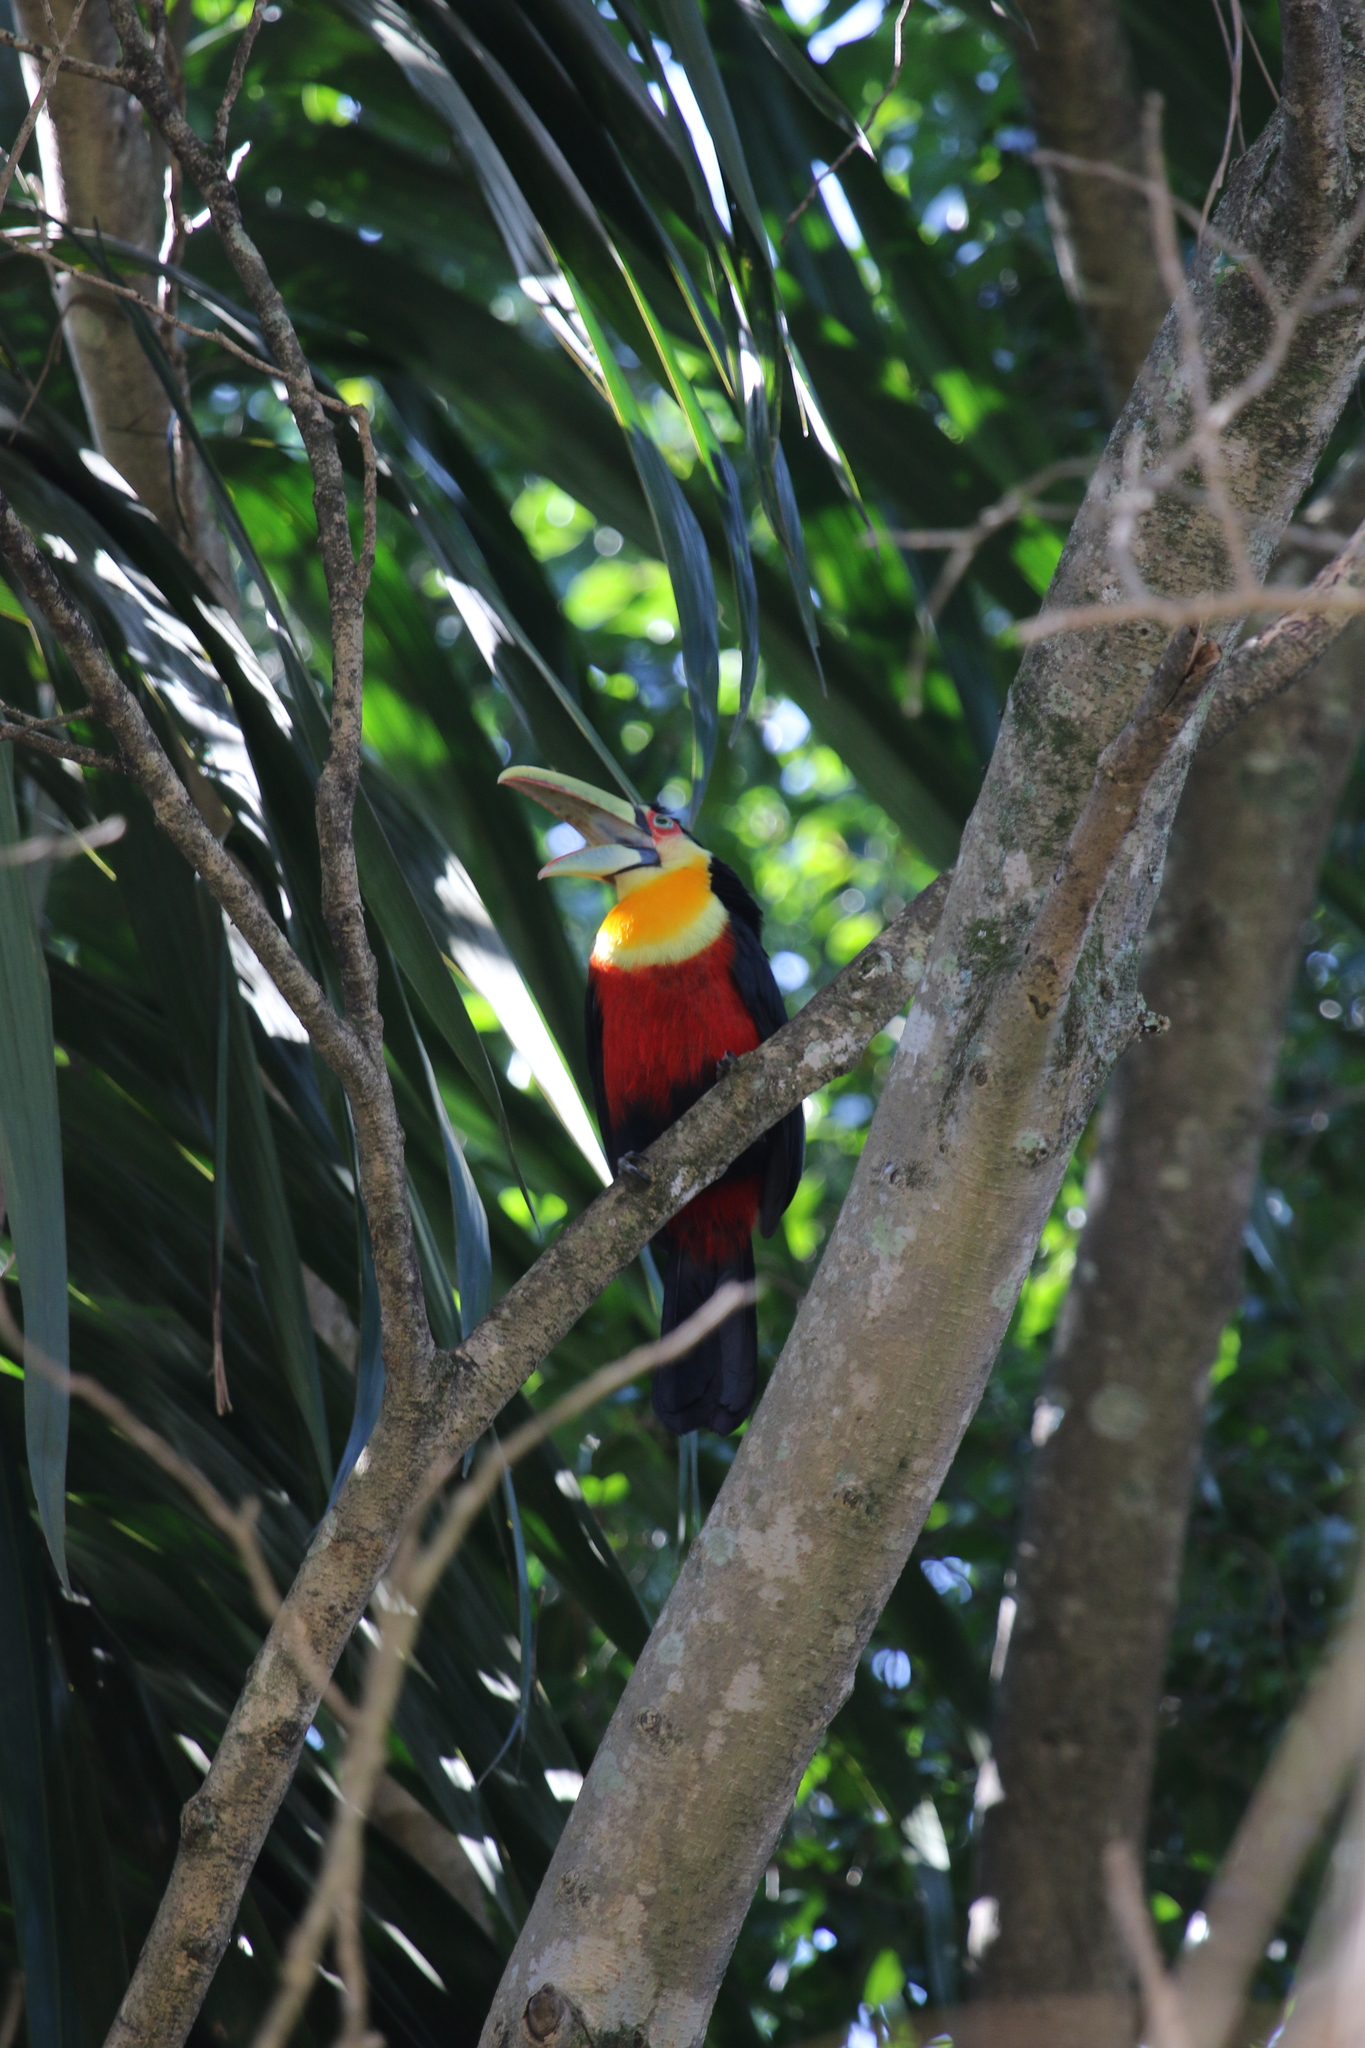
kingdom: Animalia
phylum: Chordata
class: Aves
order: Piciformes
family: Ramphastidae
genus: Ramphastos
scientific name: Ramphastos dicolorus
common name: Green-billed toucan
